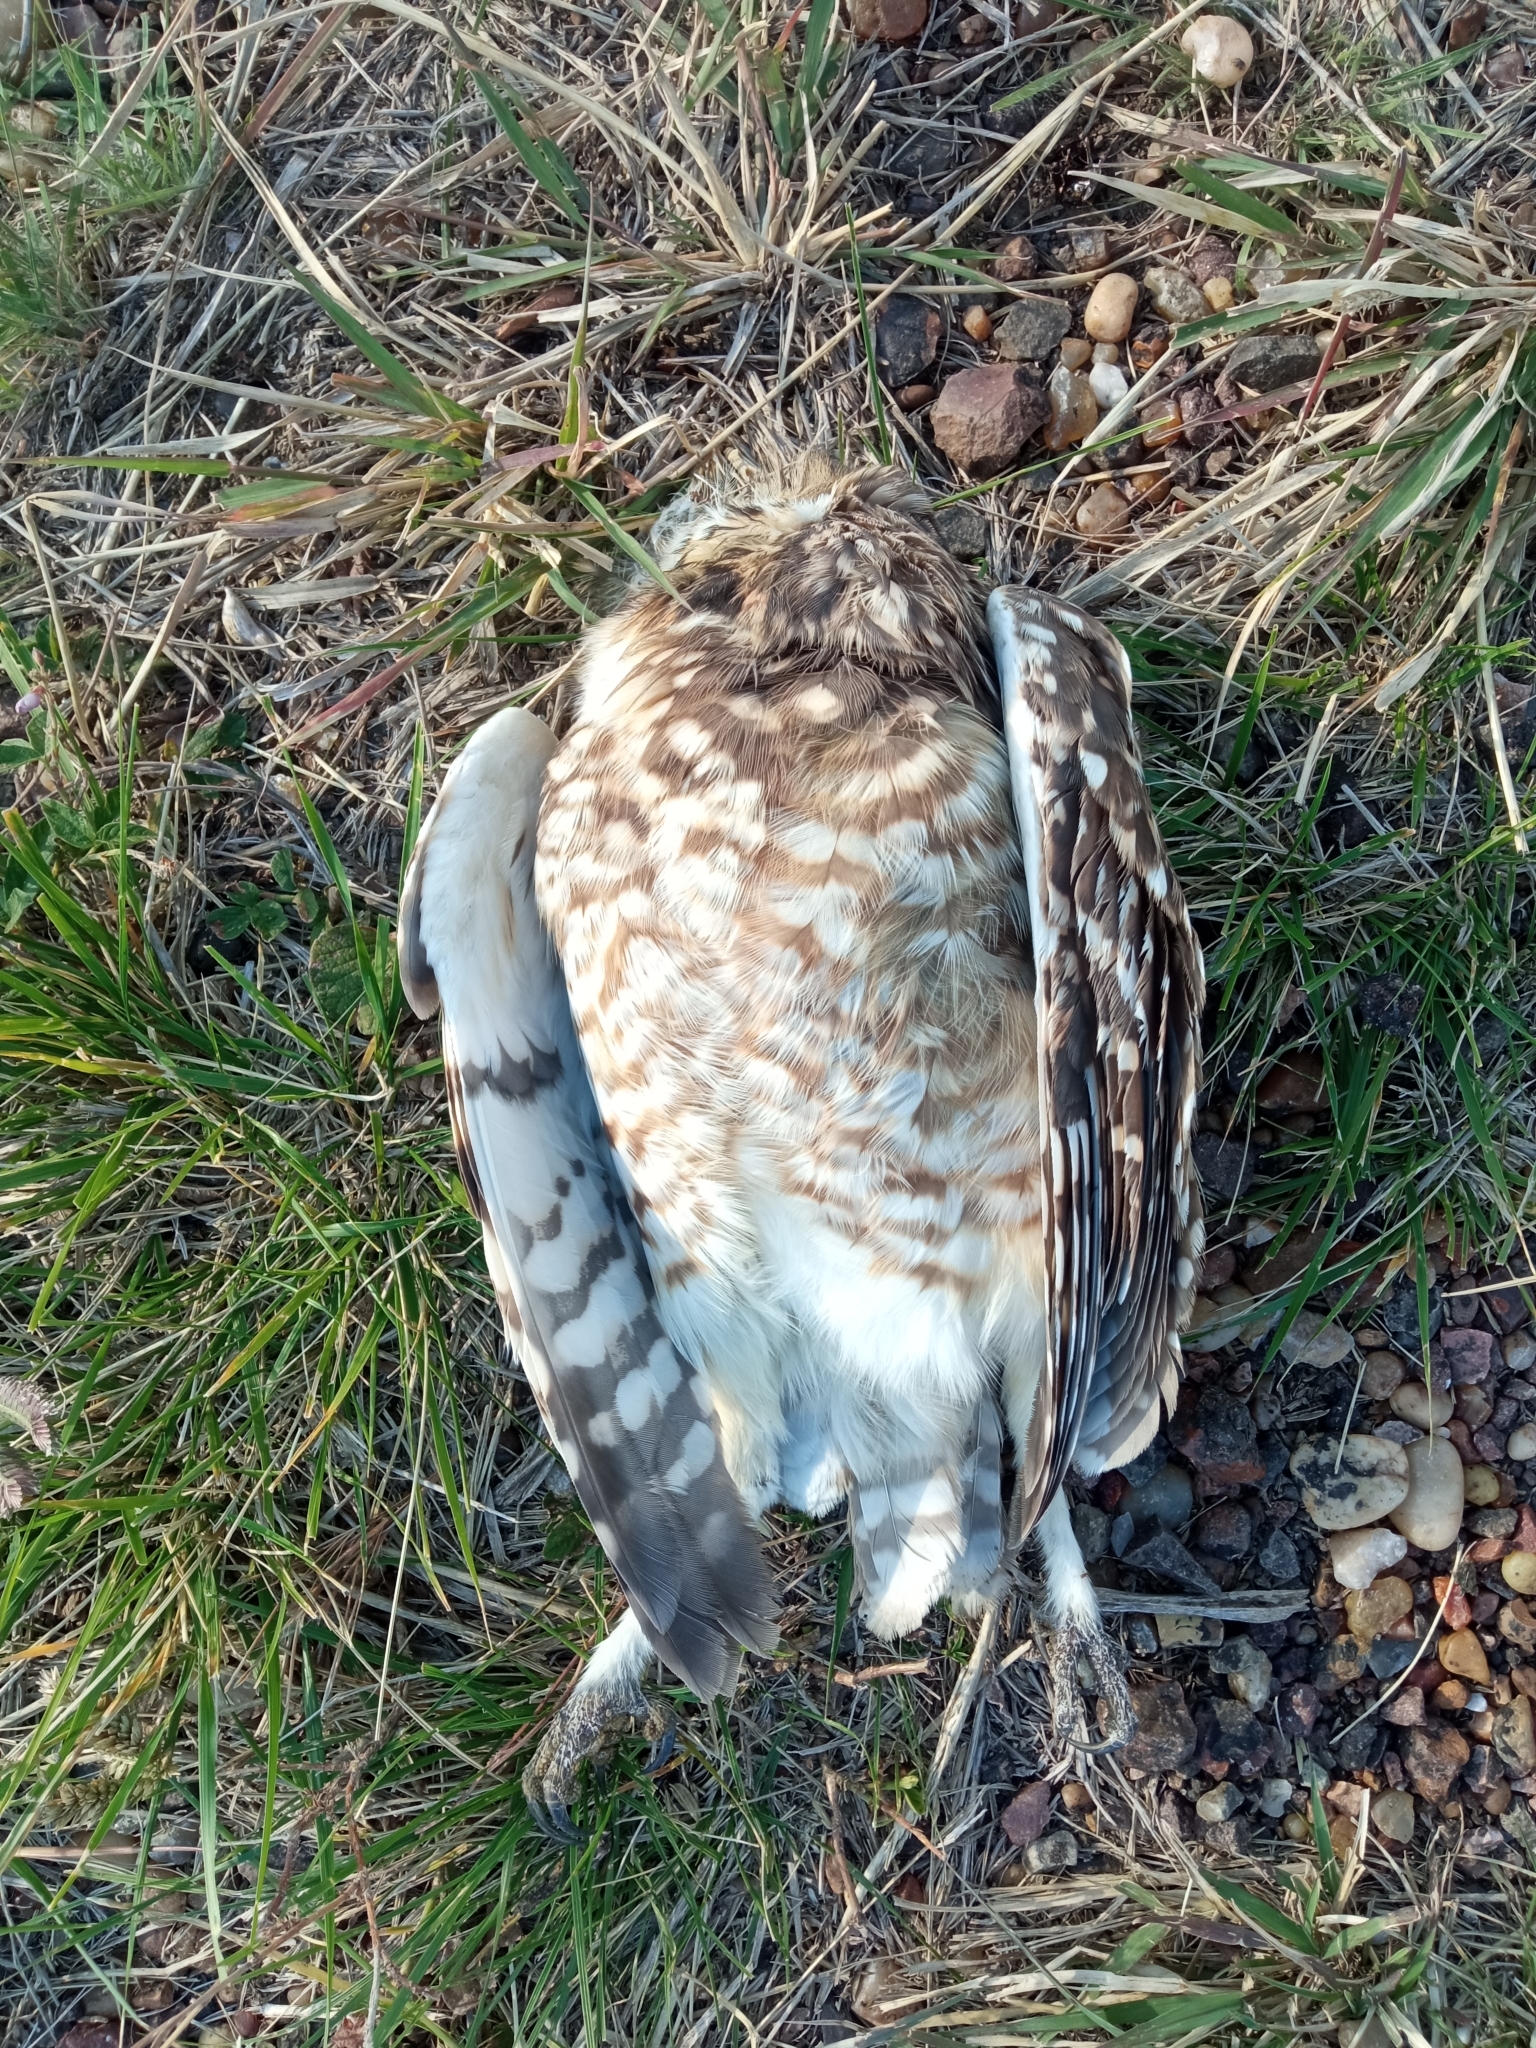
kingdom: Animalia
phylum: Chordata
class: Aves
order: Strigiformes
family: Strigidae
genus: Athene
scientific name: Athene cunicularia
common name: Burrowing owl
